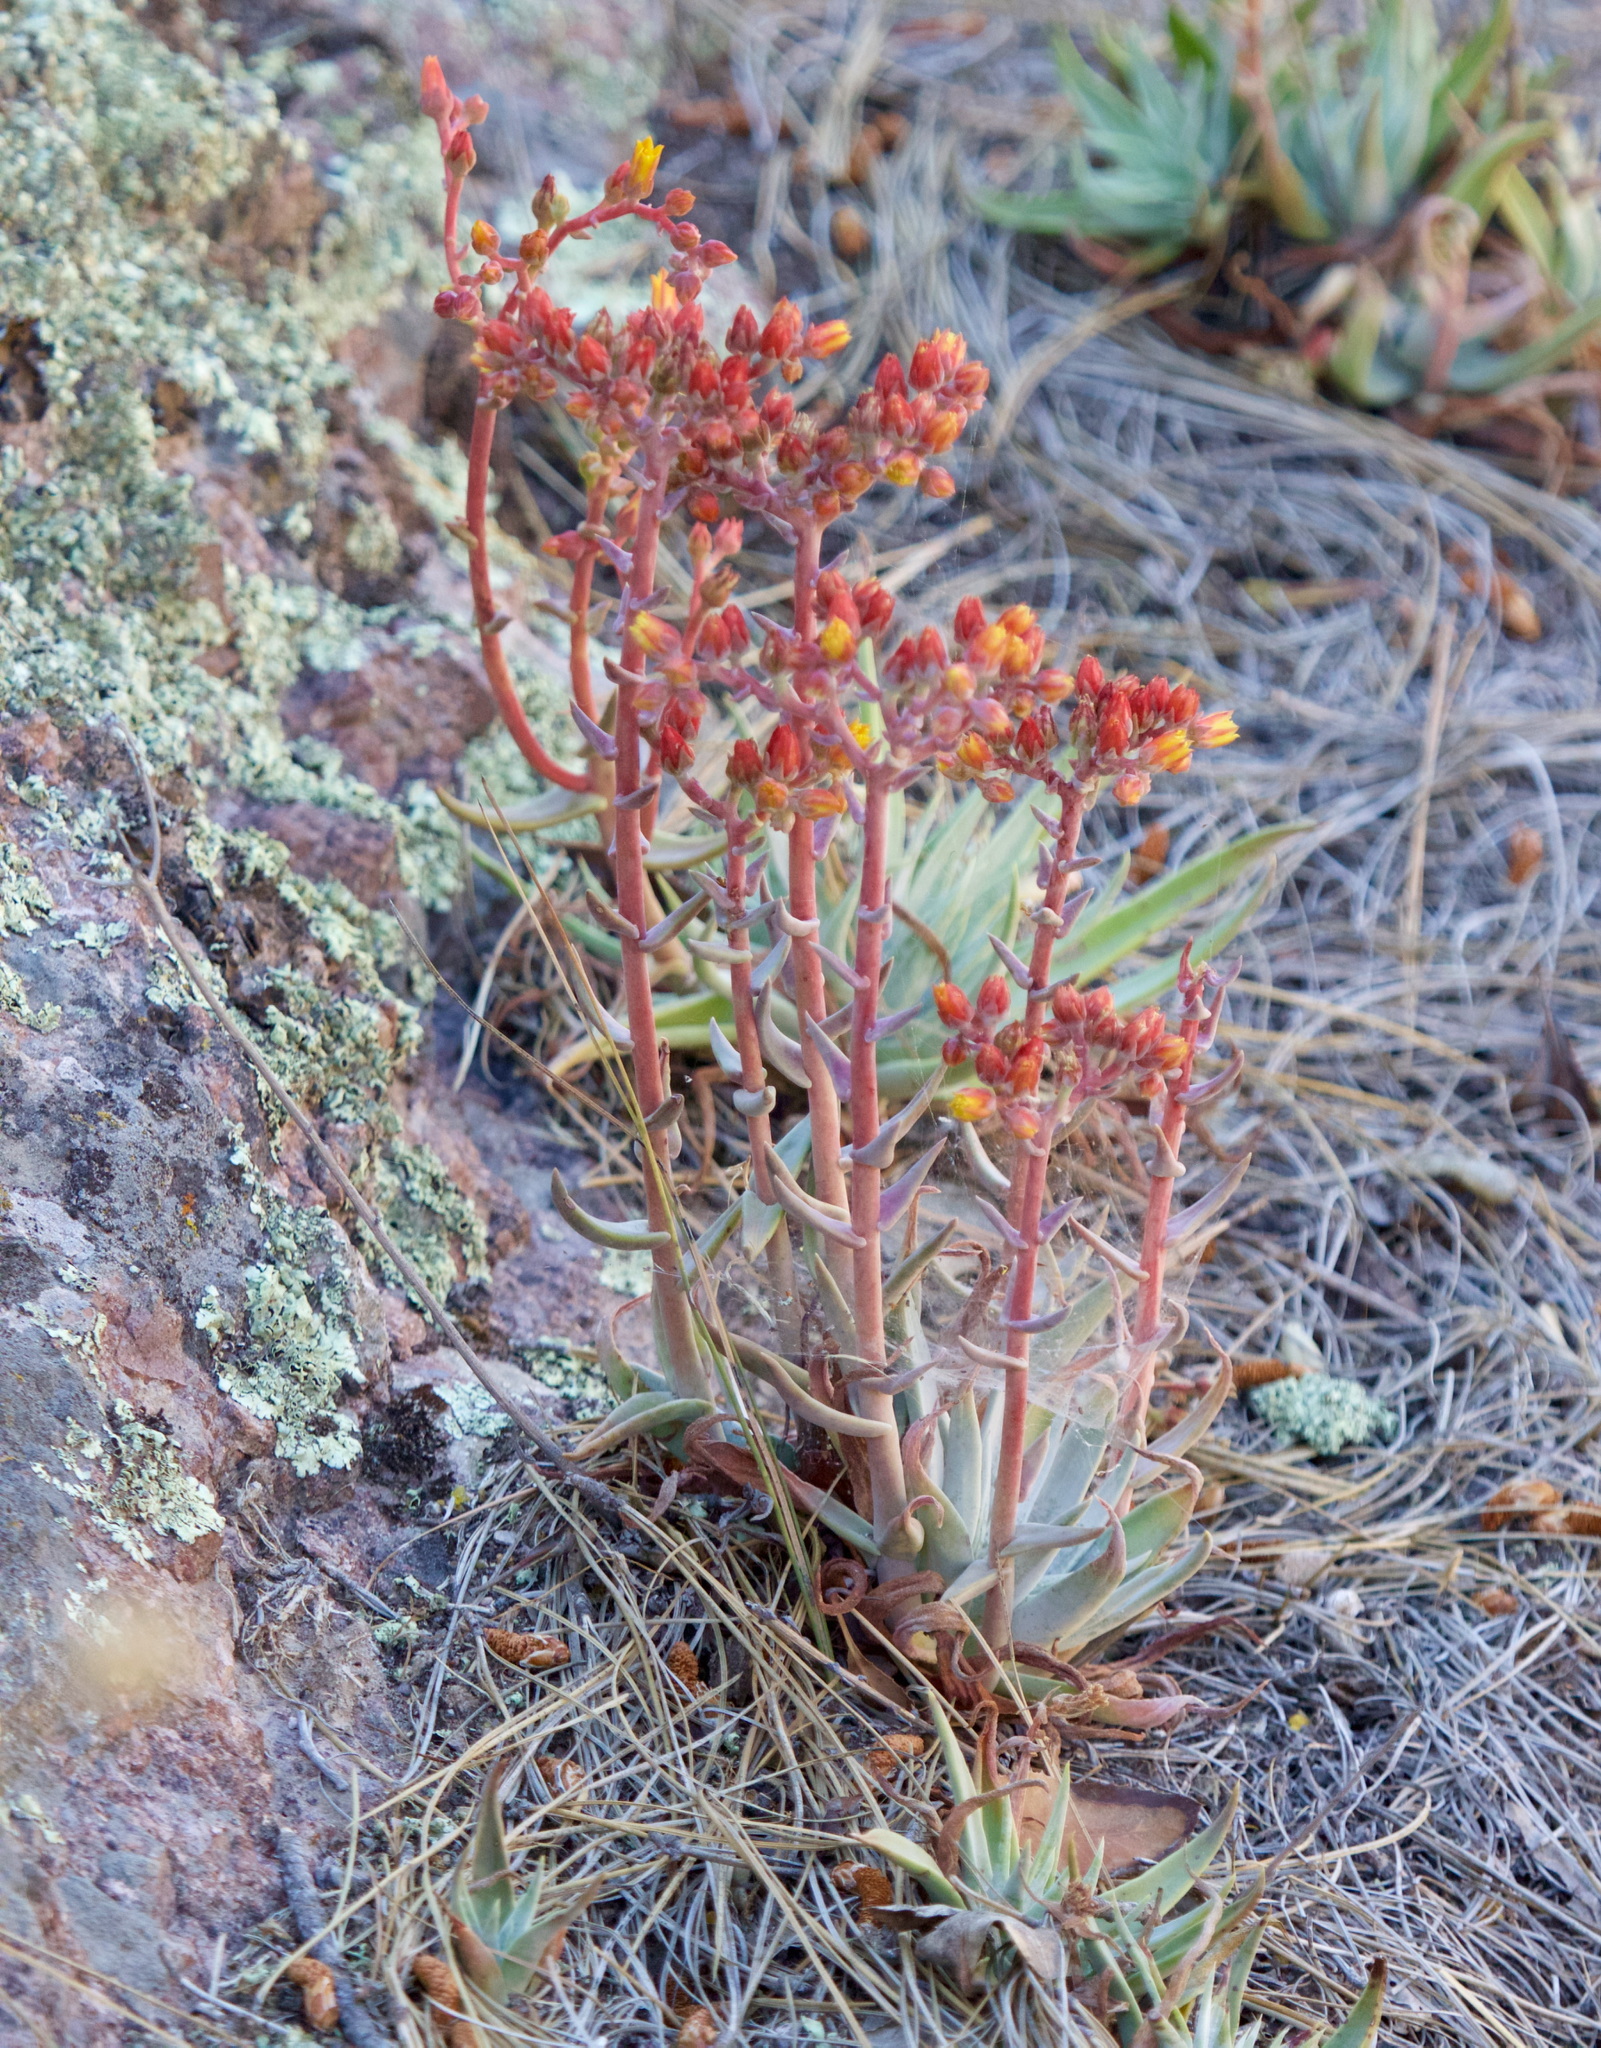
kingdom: Plantae
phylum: Tracheophyta
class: Magnoliopsida
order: Saxifragales
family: Crassulaceae
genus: Dudleya
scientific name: Dudleya lanceolata
